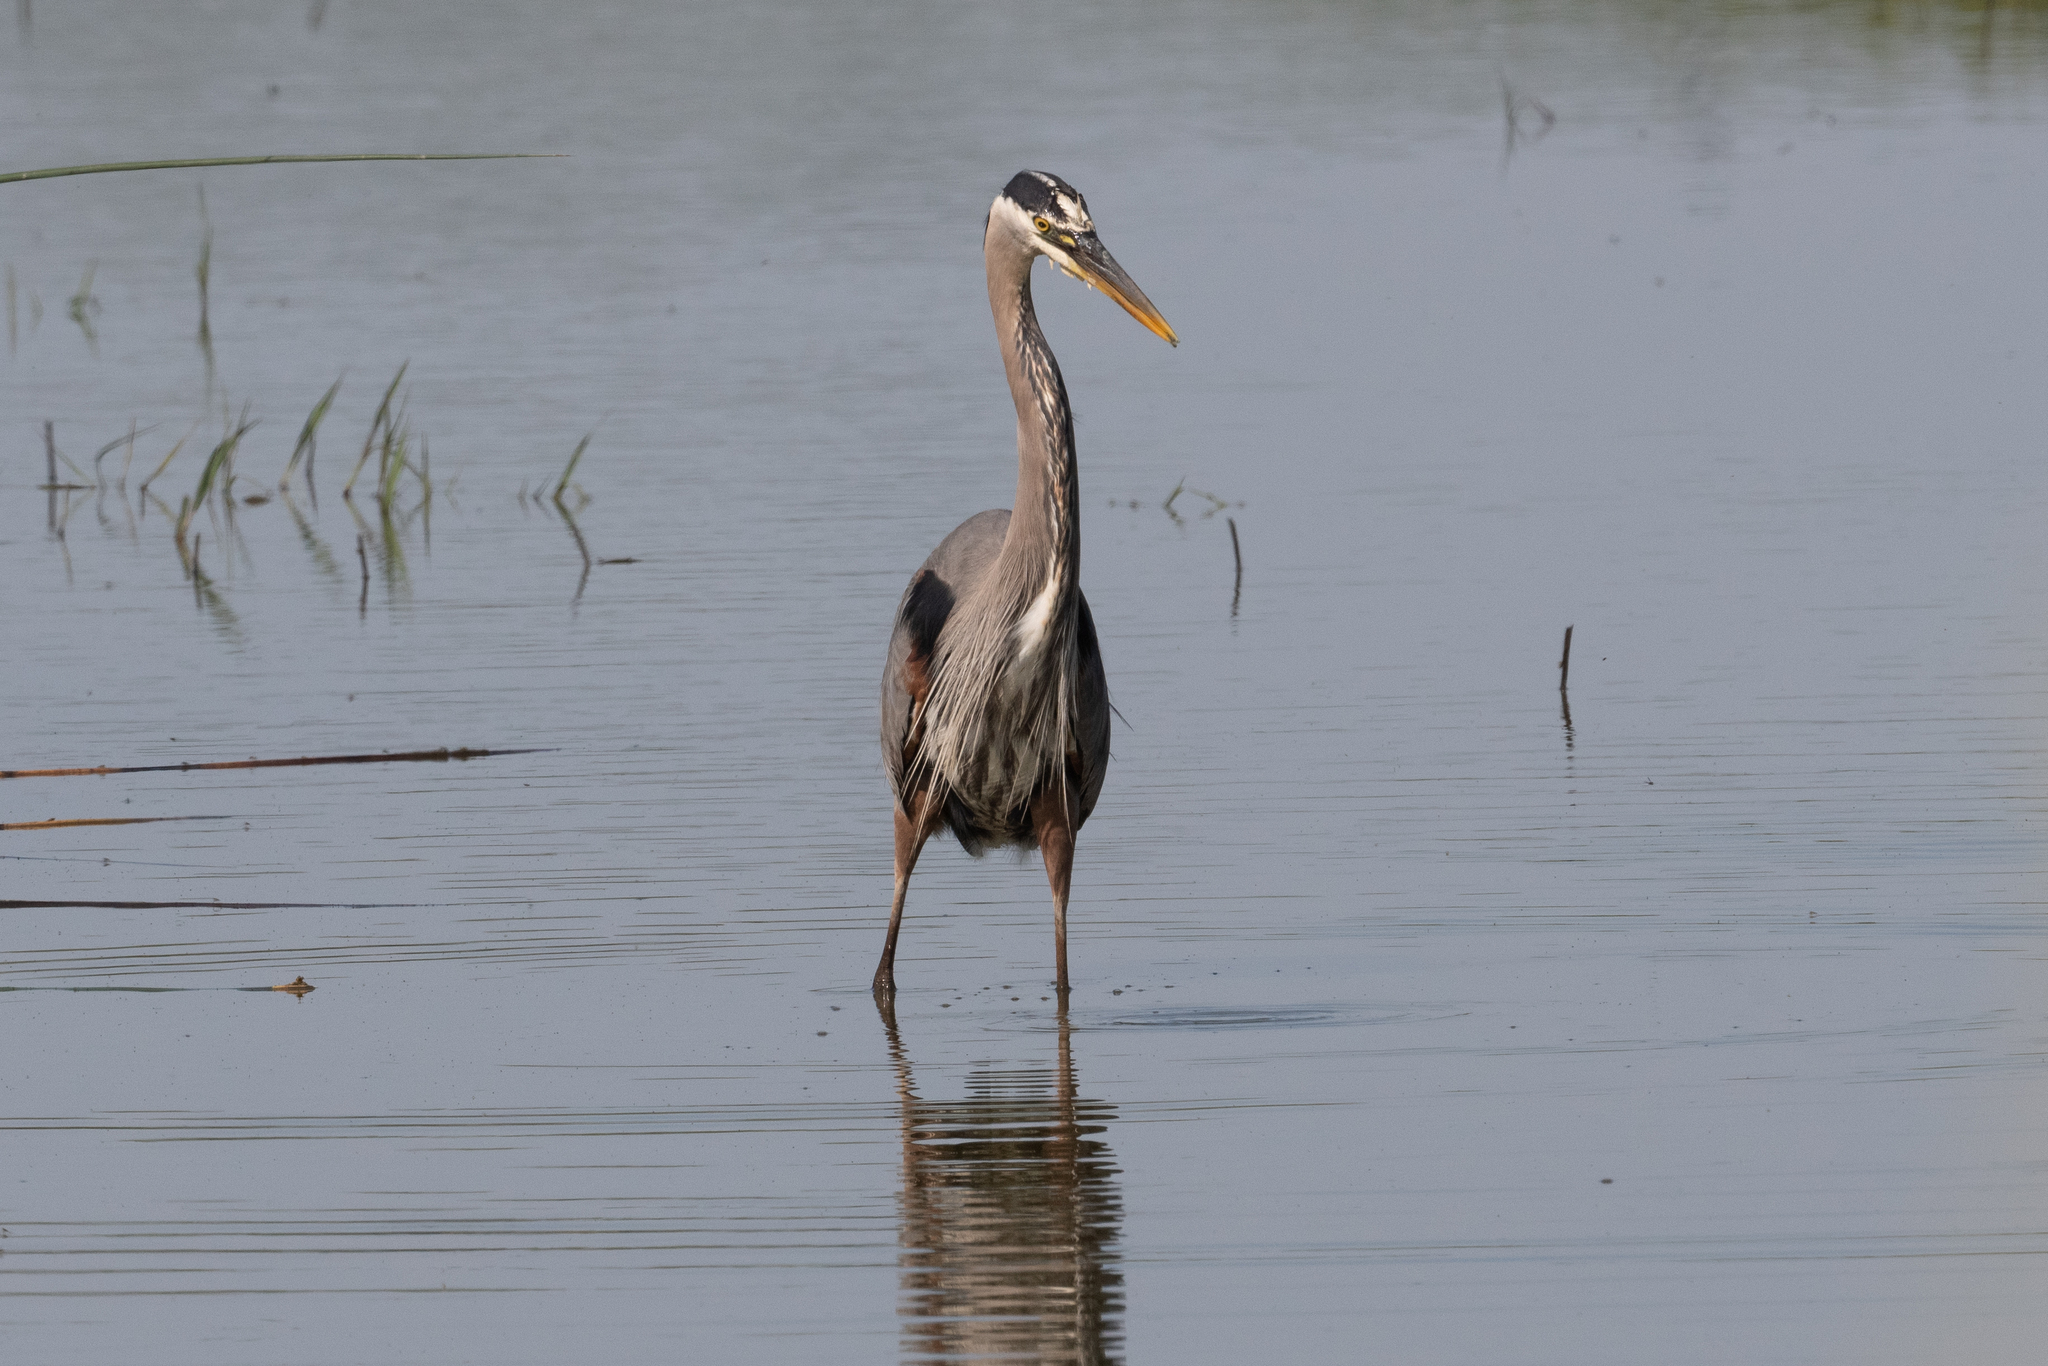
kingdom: Animalia
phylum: Chordata
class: Aves
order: Pelecaniformes
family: Ardeidae
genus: Ardea
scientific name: Ardea herodias
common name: Great blue heron
